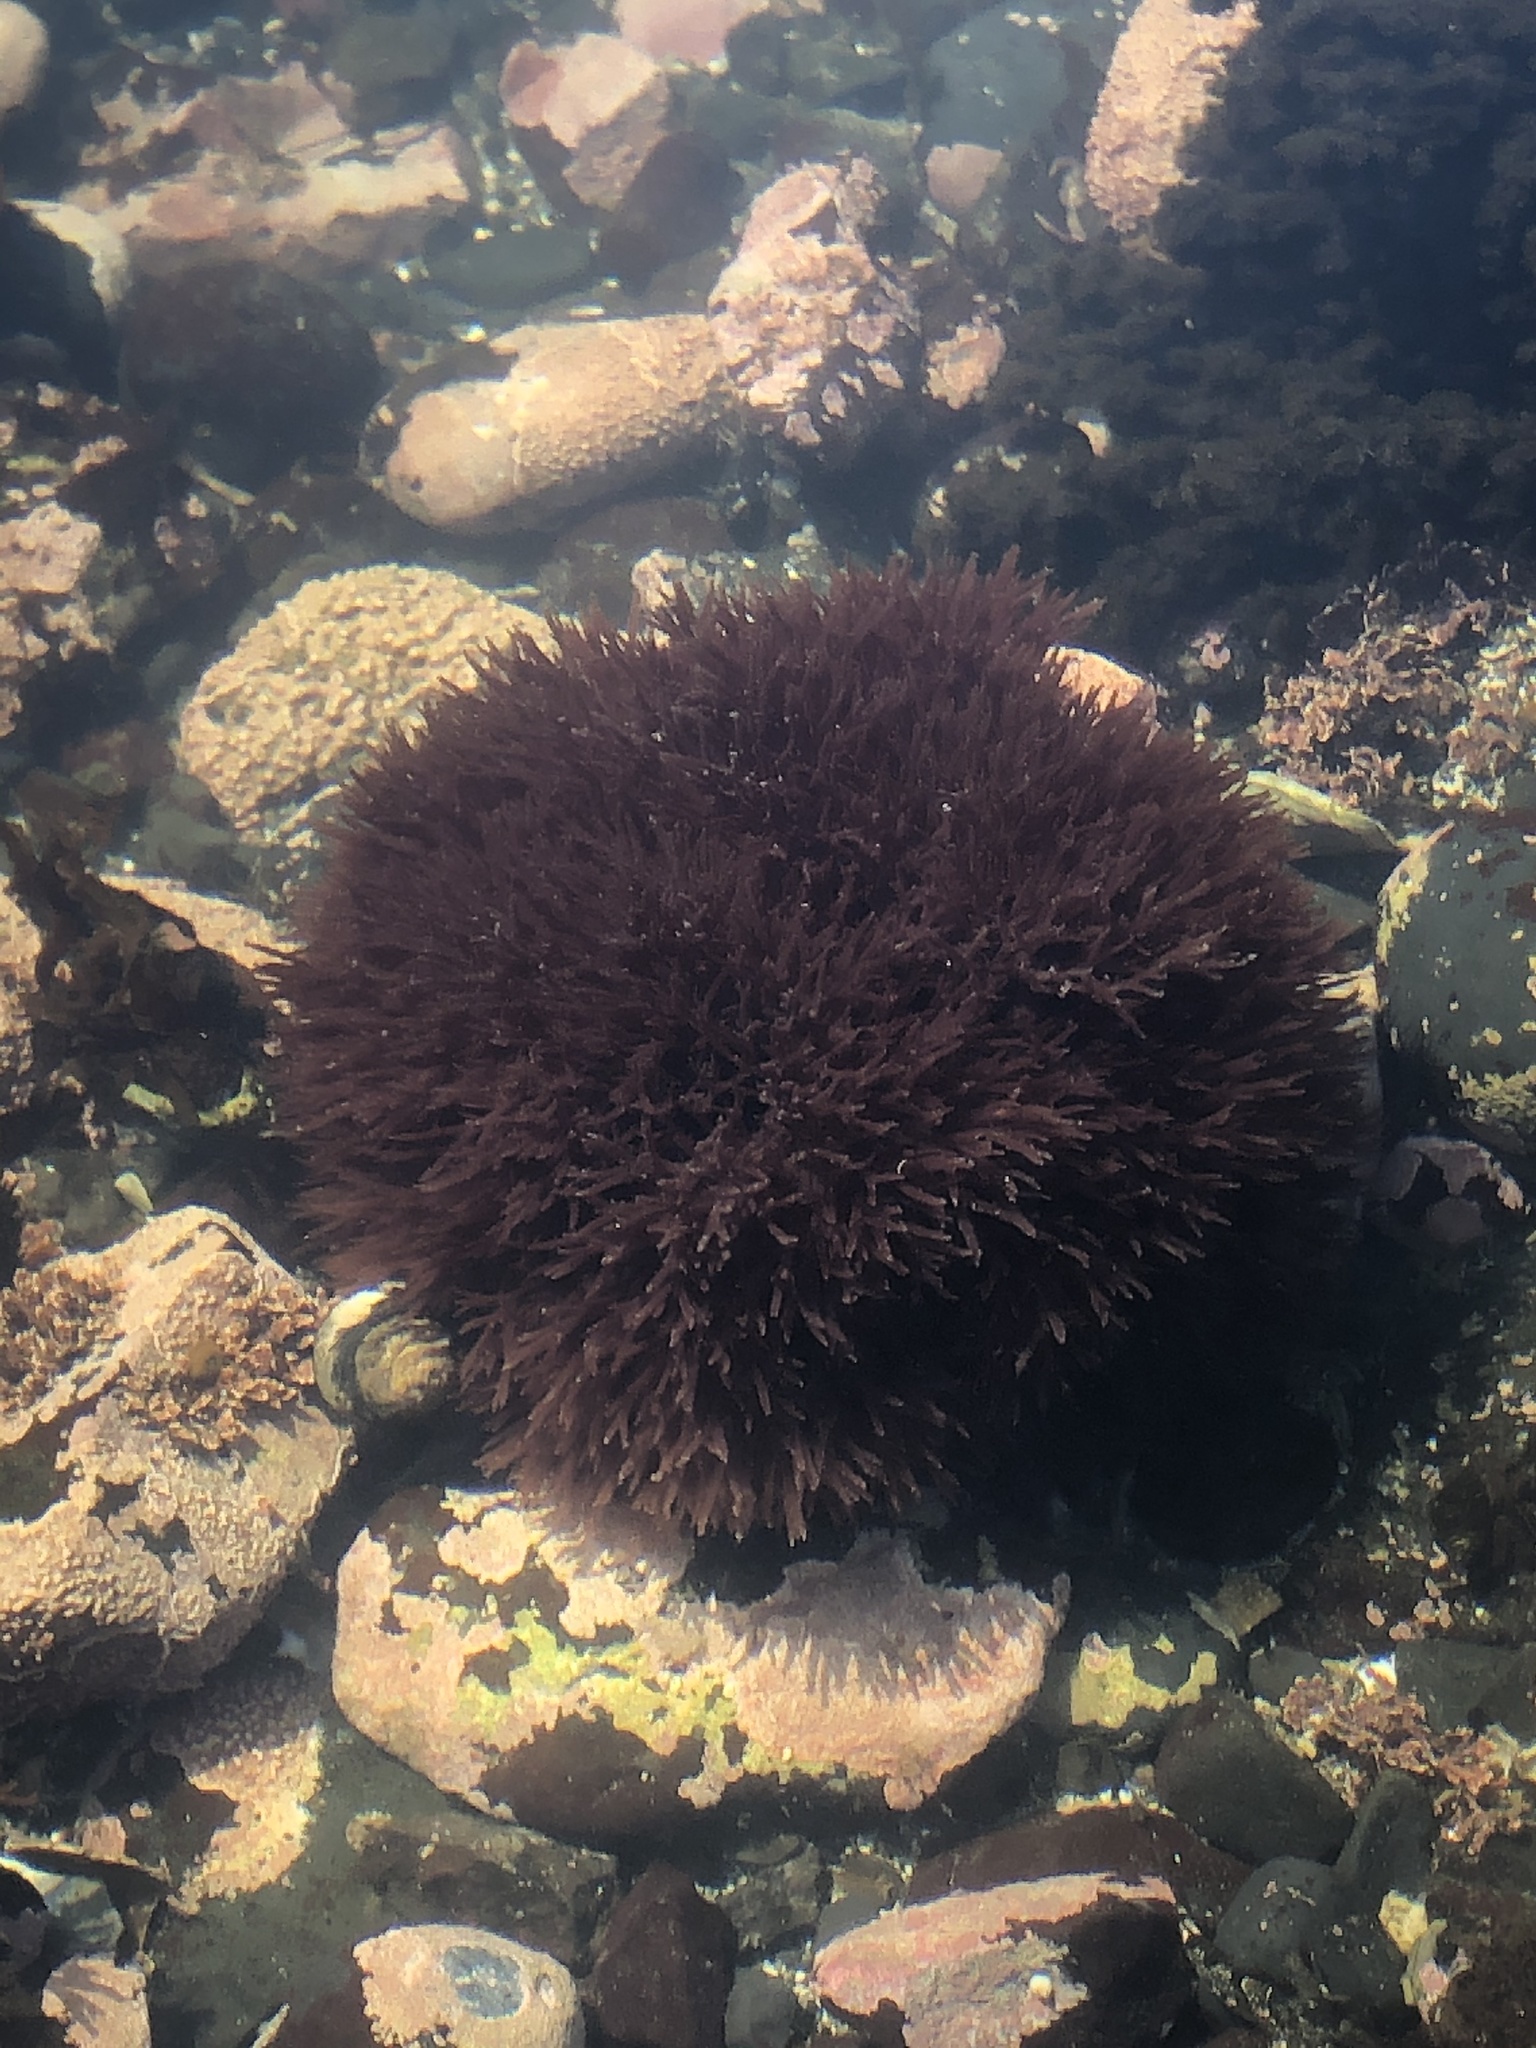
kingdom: Plantae
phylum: Rhodophyta
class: Florideophyceae
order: Nemaliales
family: Scinaiaceae
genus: Scinaia
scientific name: Scinaia confusa
